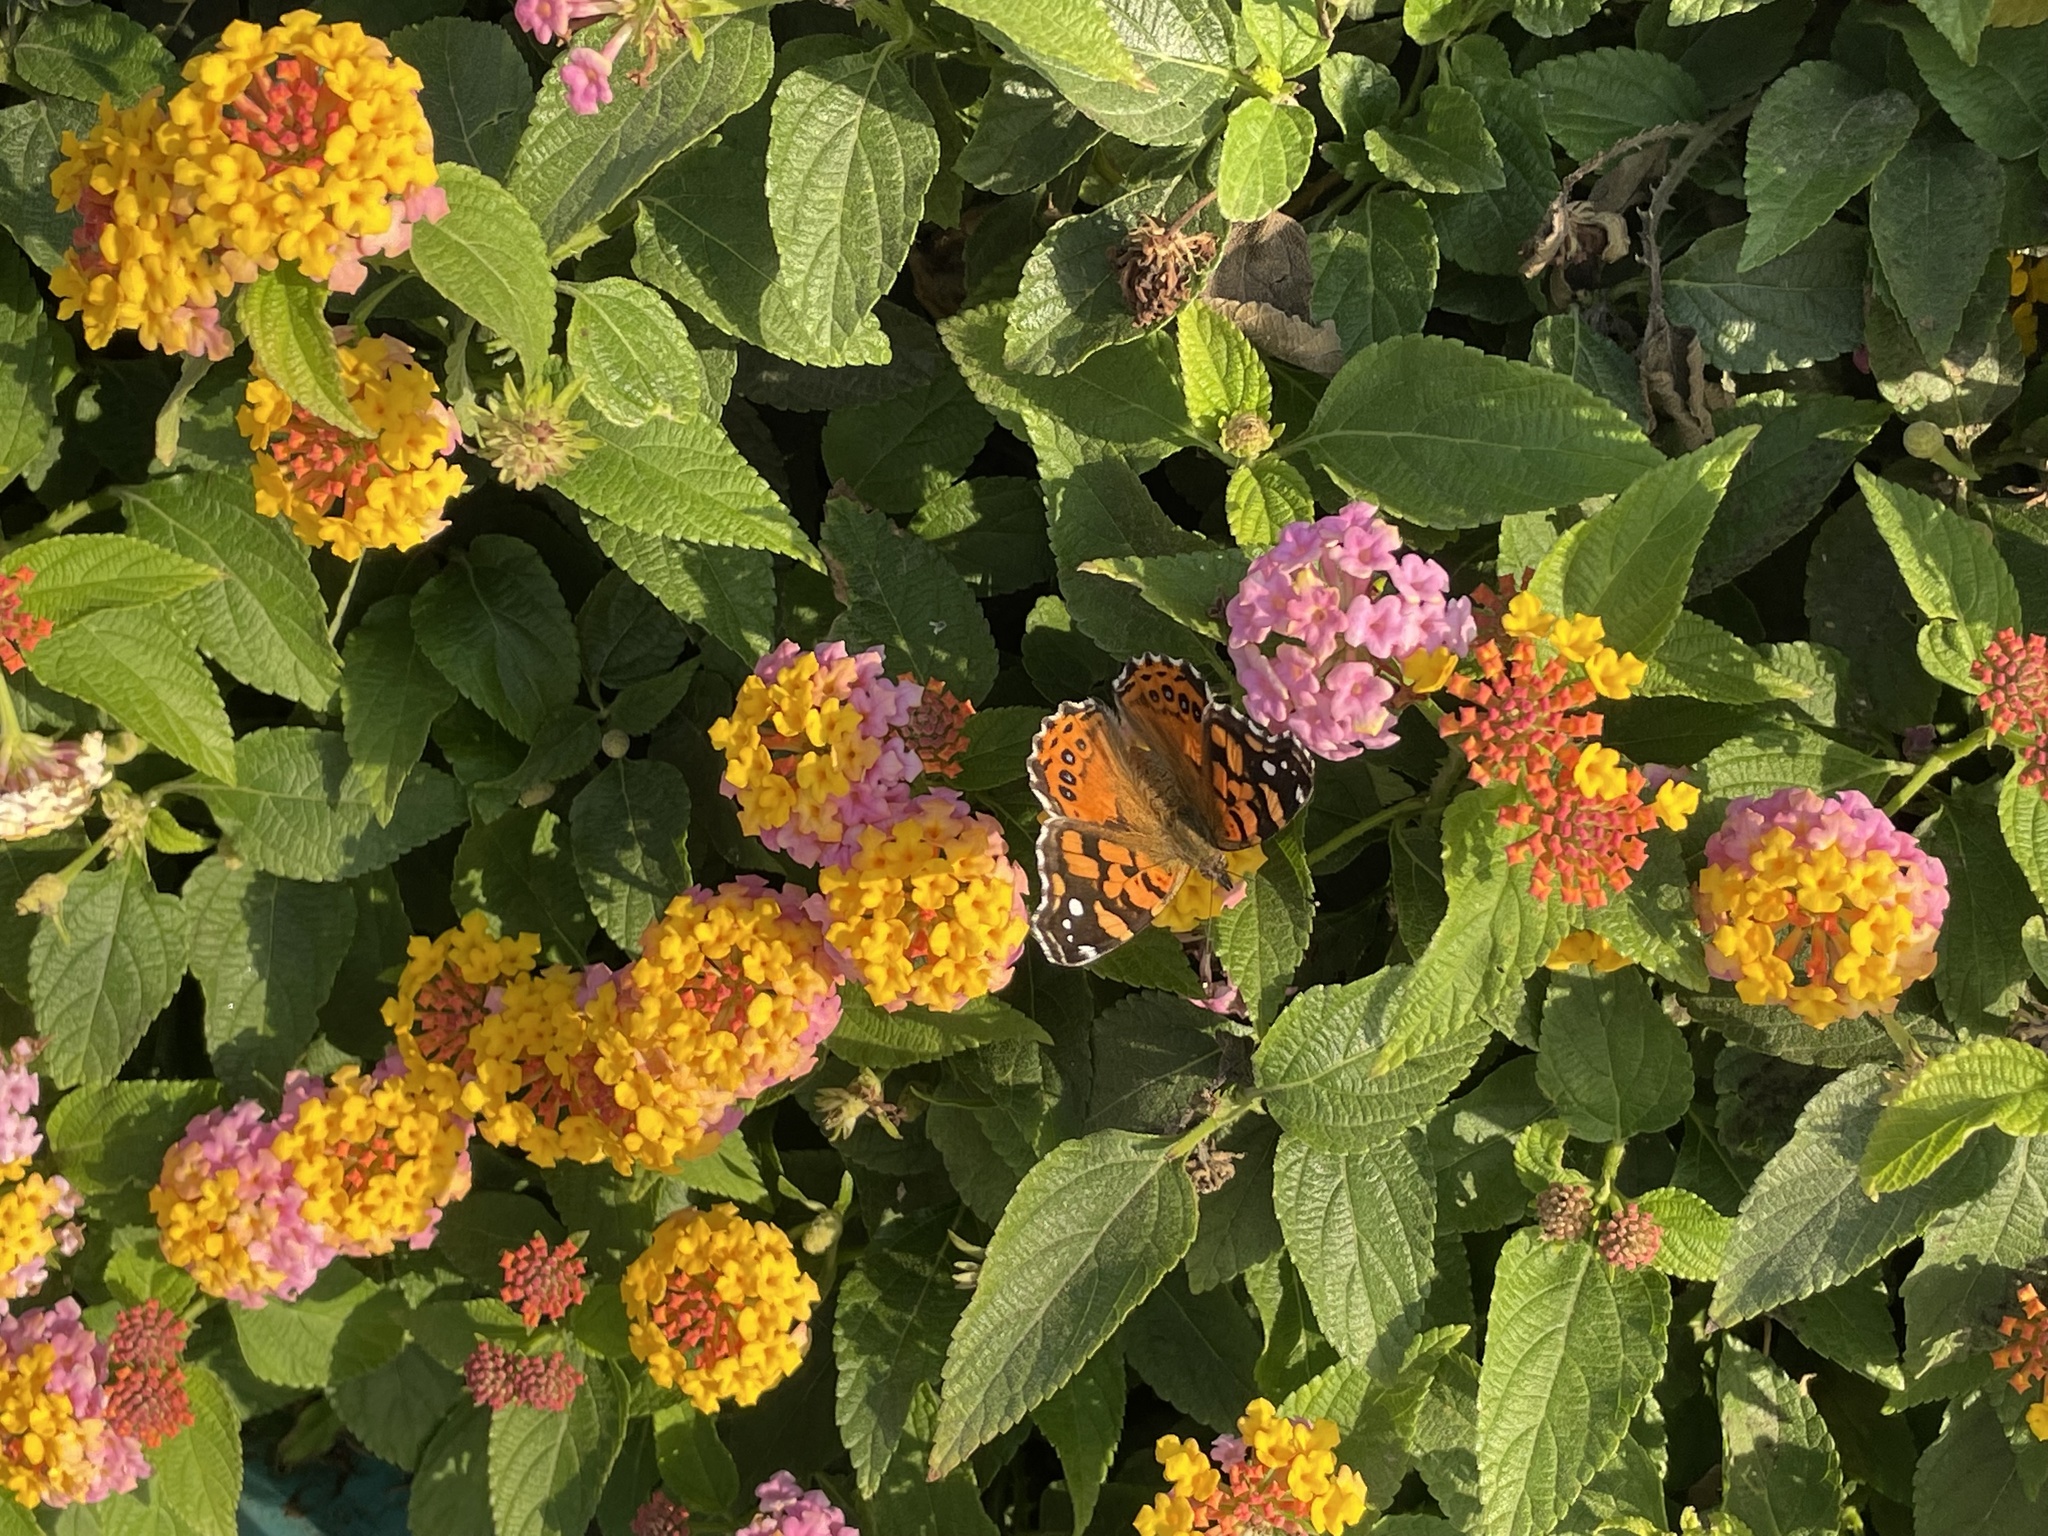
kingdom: Animalia
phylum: Arthropoda
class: Insecta
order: Lepidoptera
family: Nymphalidae
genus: Vanessa
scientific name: Vanessa carye
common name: Subtropical lady
